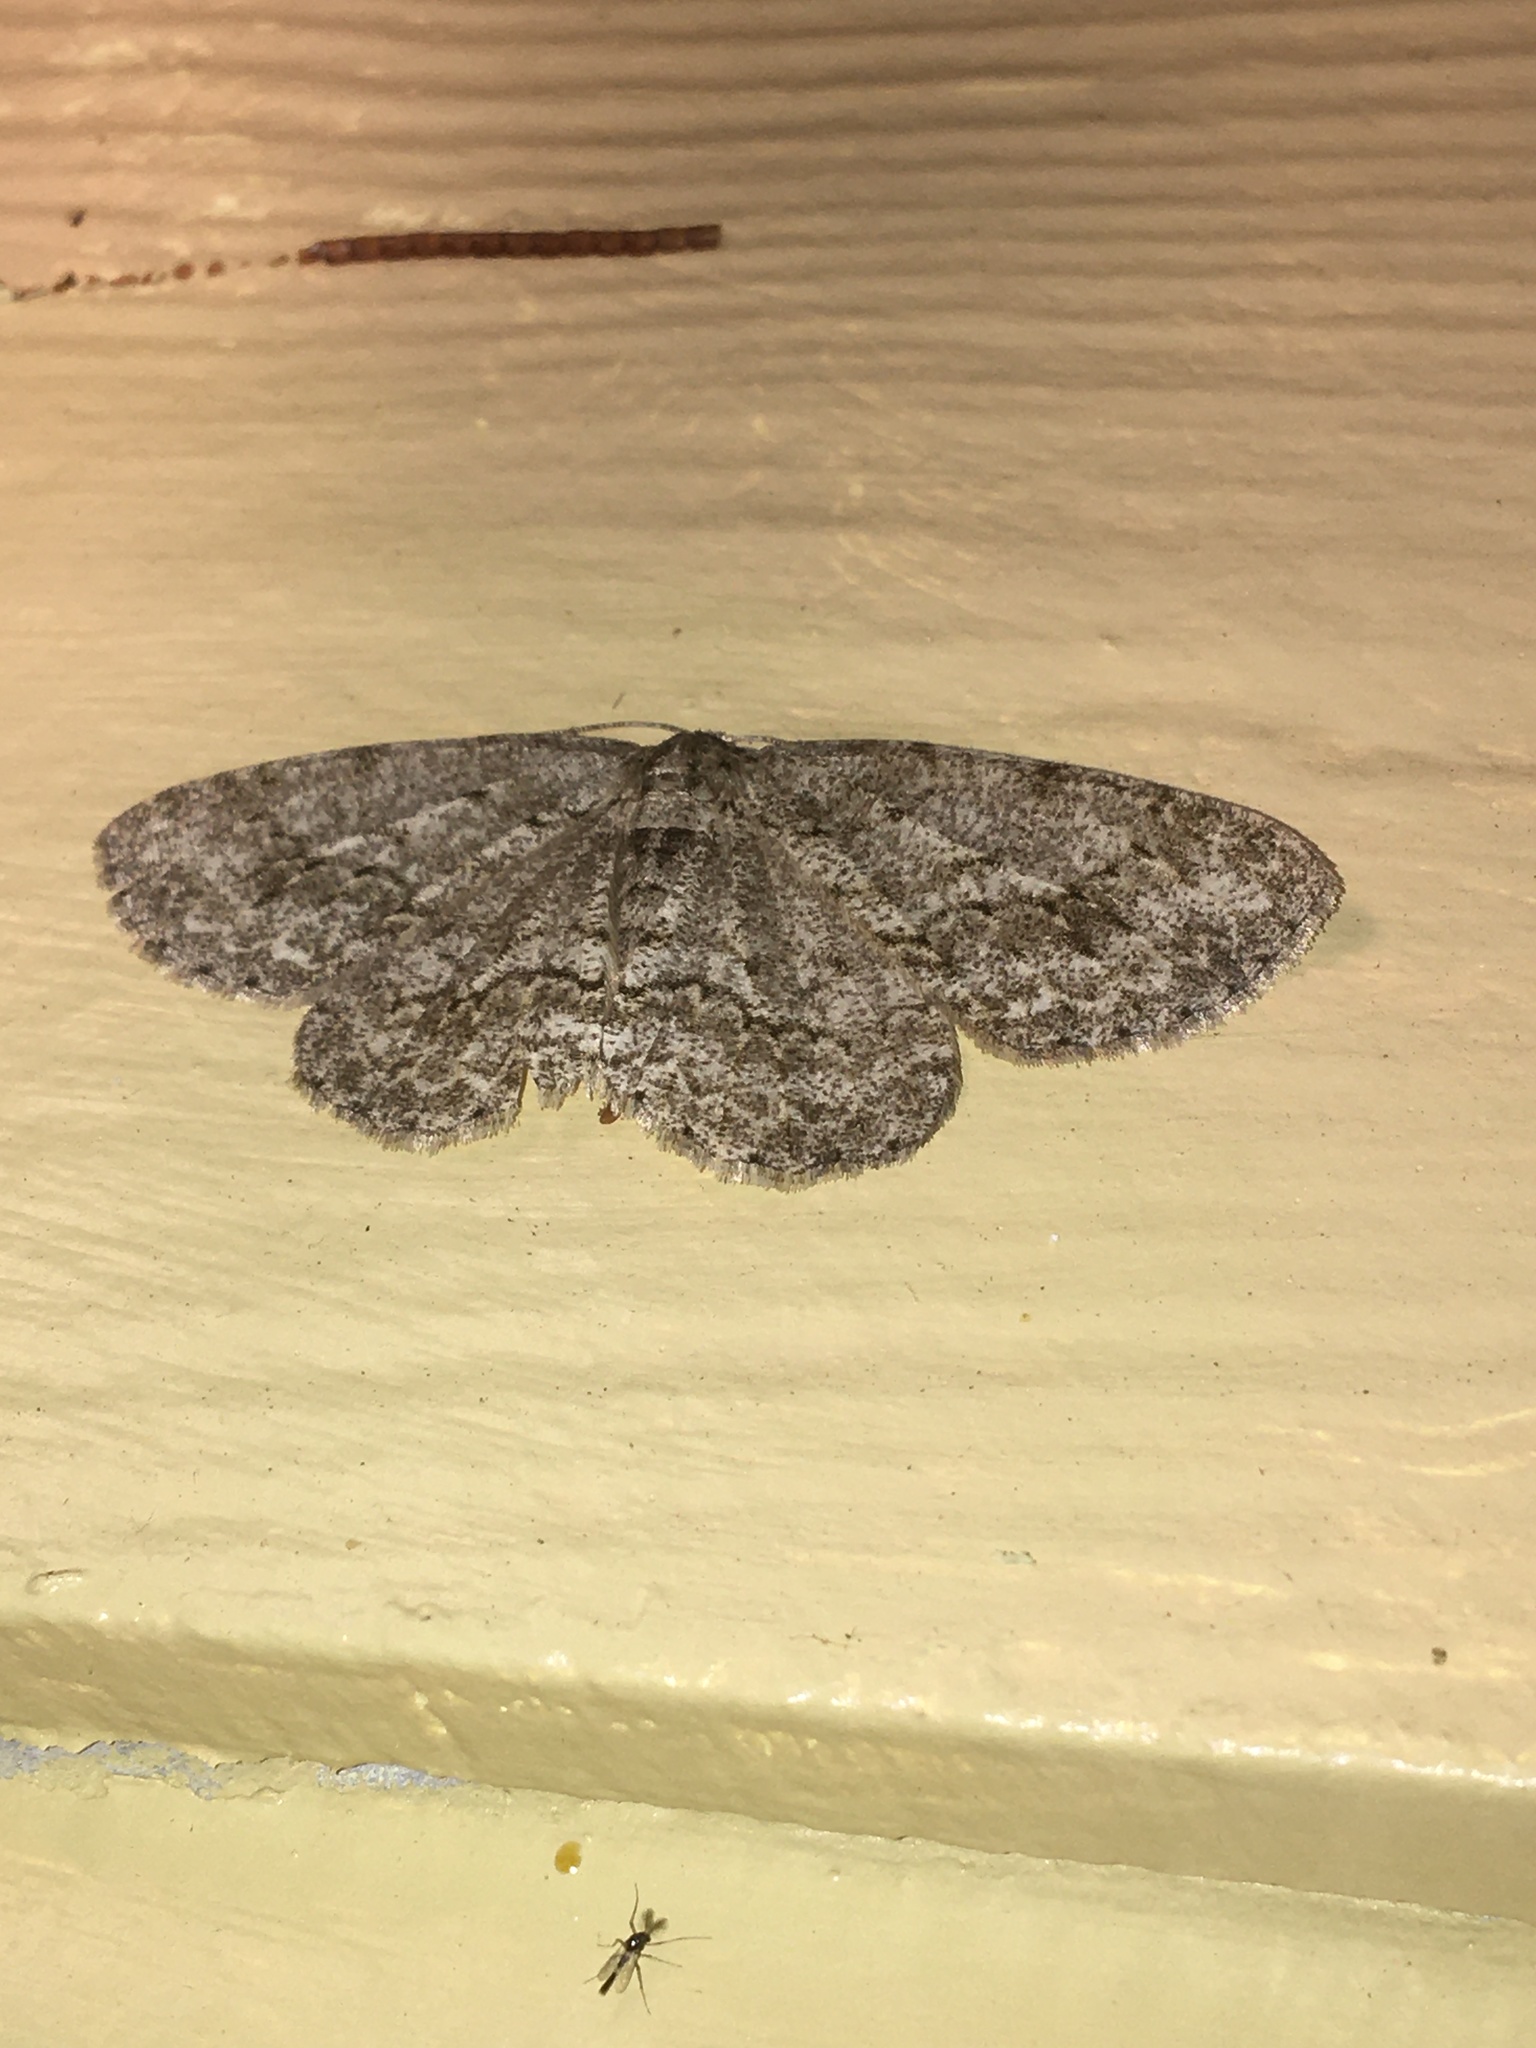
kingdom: Animalia
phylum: Arthropoda
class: Insecta
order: Lepidoptera
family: Geometridae
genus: Ectropis
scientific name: Ectropis crepuscularia
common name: Engrailed
